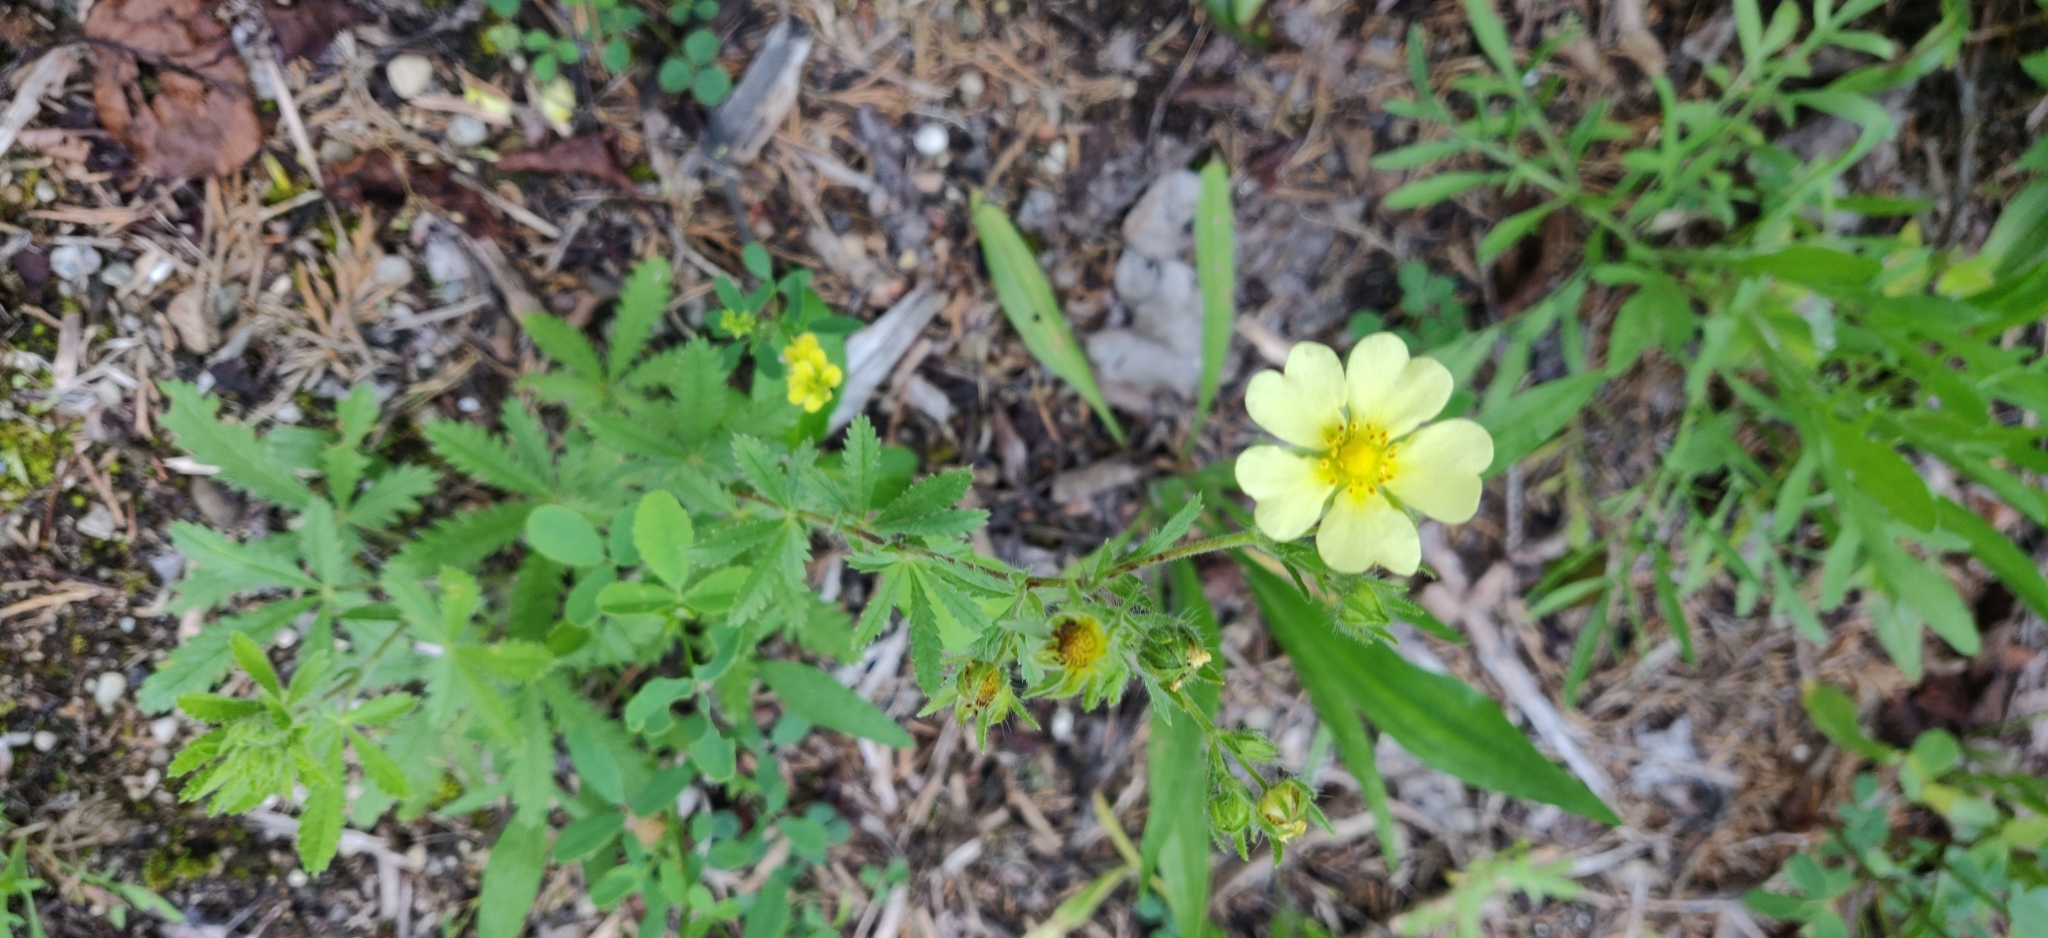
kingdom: Plantae
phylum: Tracheophyta
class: Magnoliopsida
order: Rosales
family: Rosaceae
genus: Potentilla
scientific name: Potentilla recta
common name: Sulphur cinquefoil
